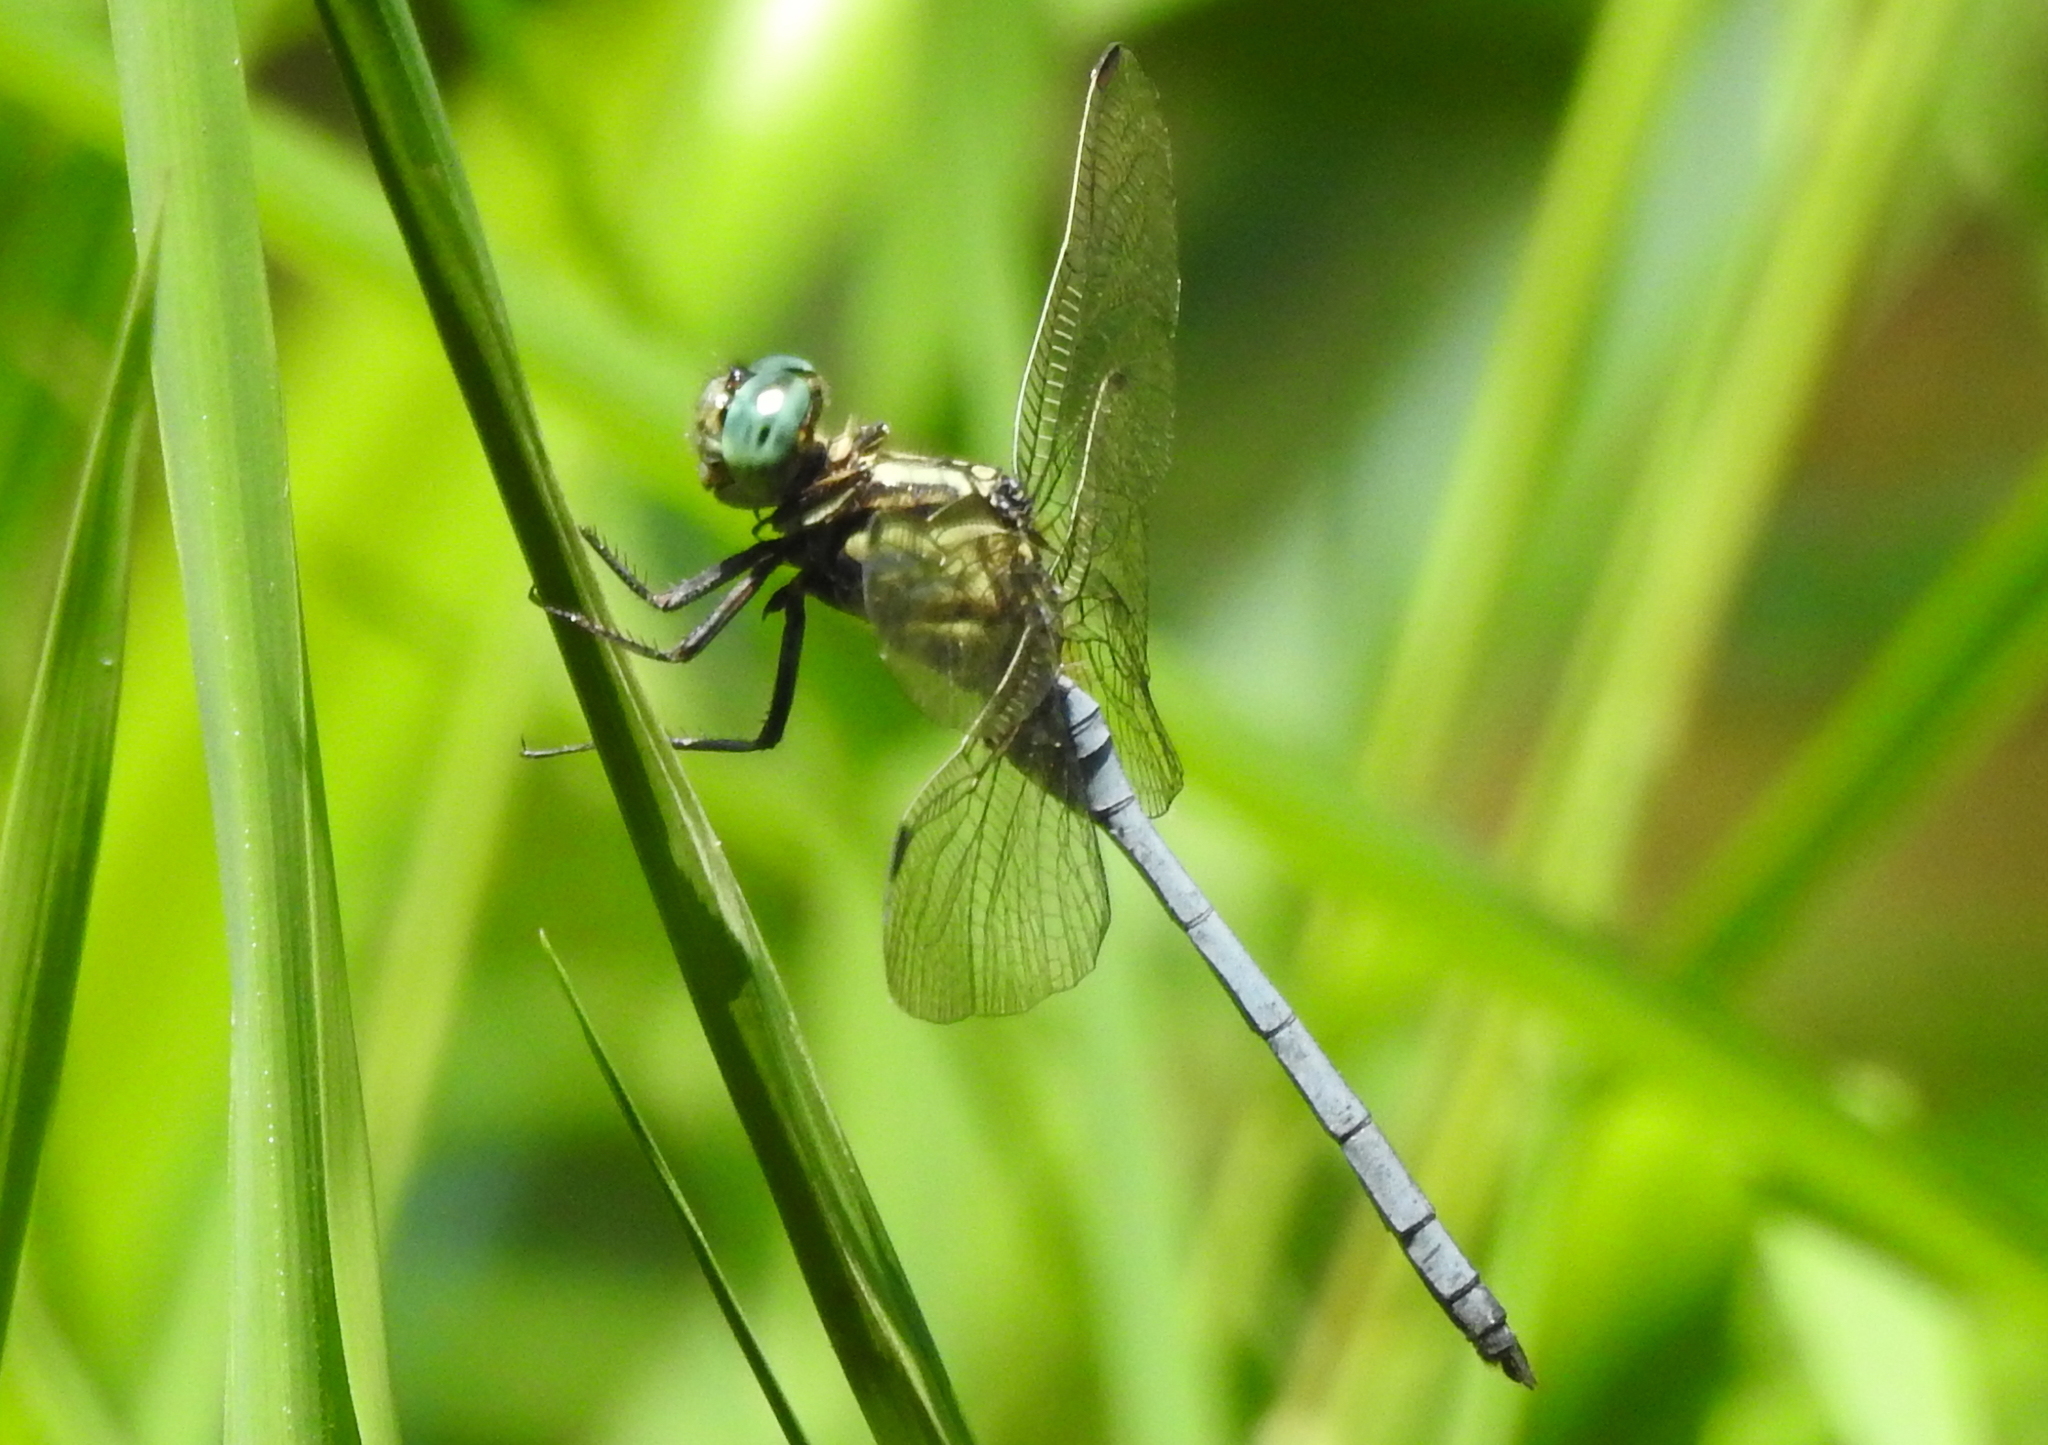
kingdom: Animalia
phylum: Arthropoda
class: Insecta
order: Odonata
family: Libellulidae
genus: Orthetrum
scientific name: Orthetrum luzonicum
